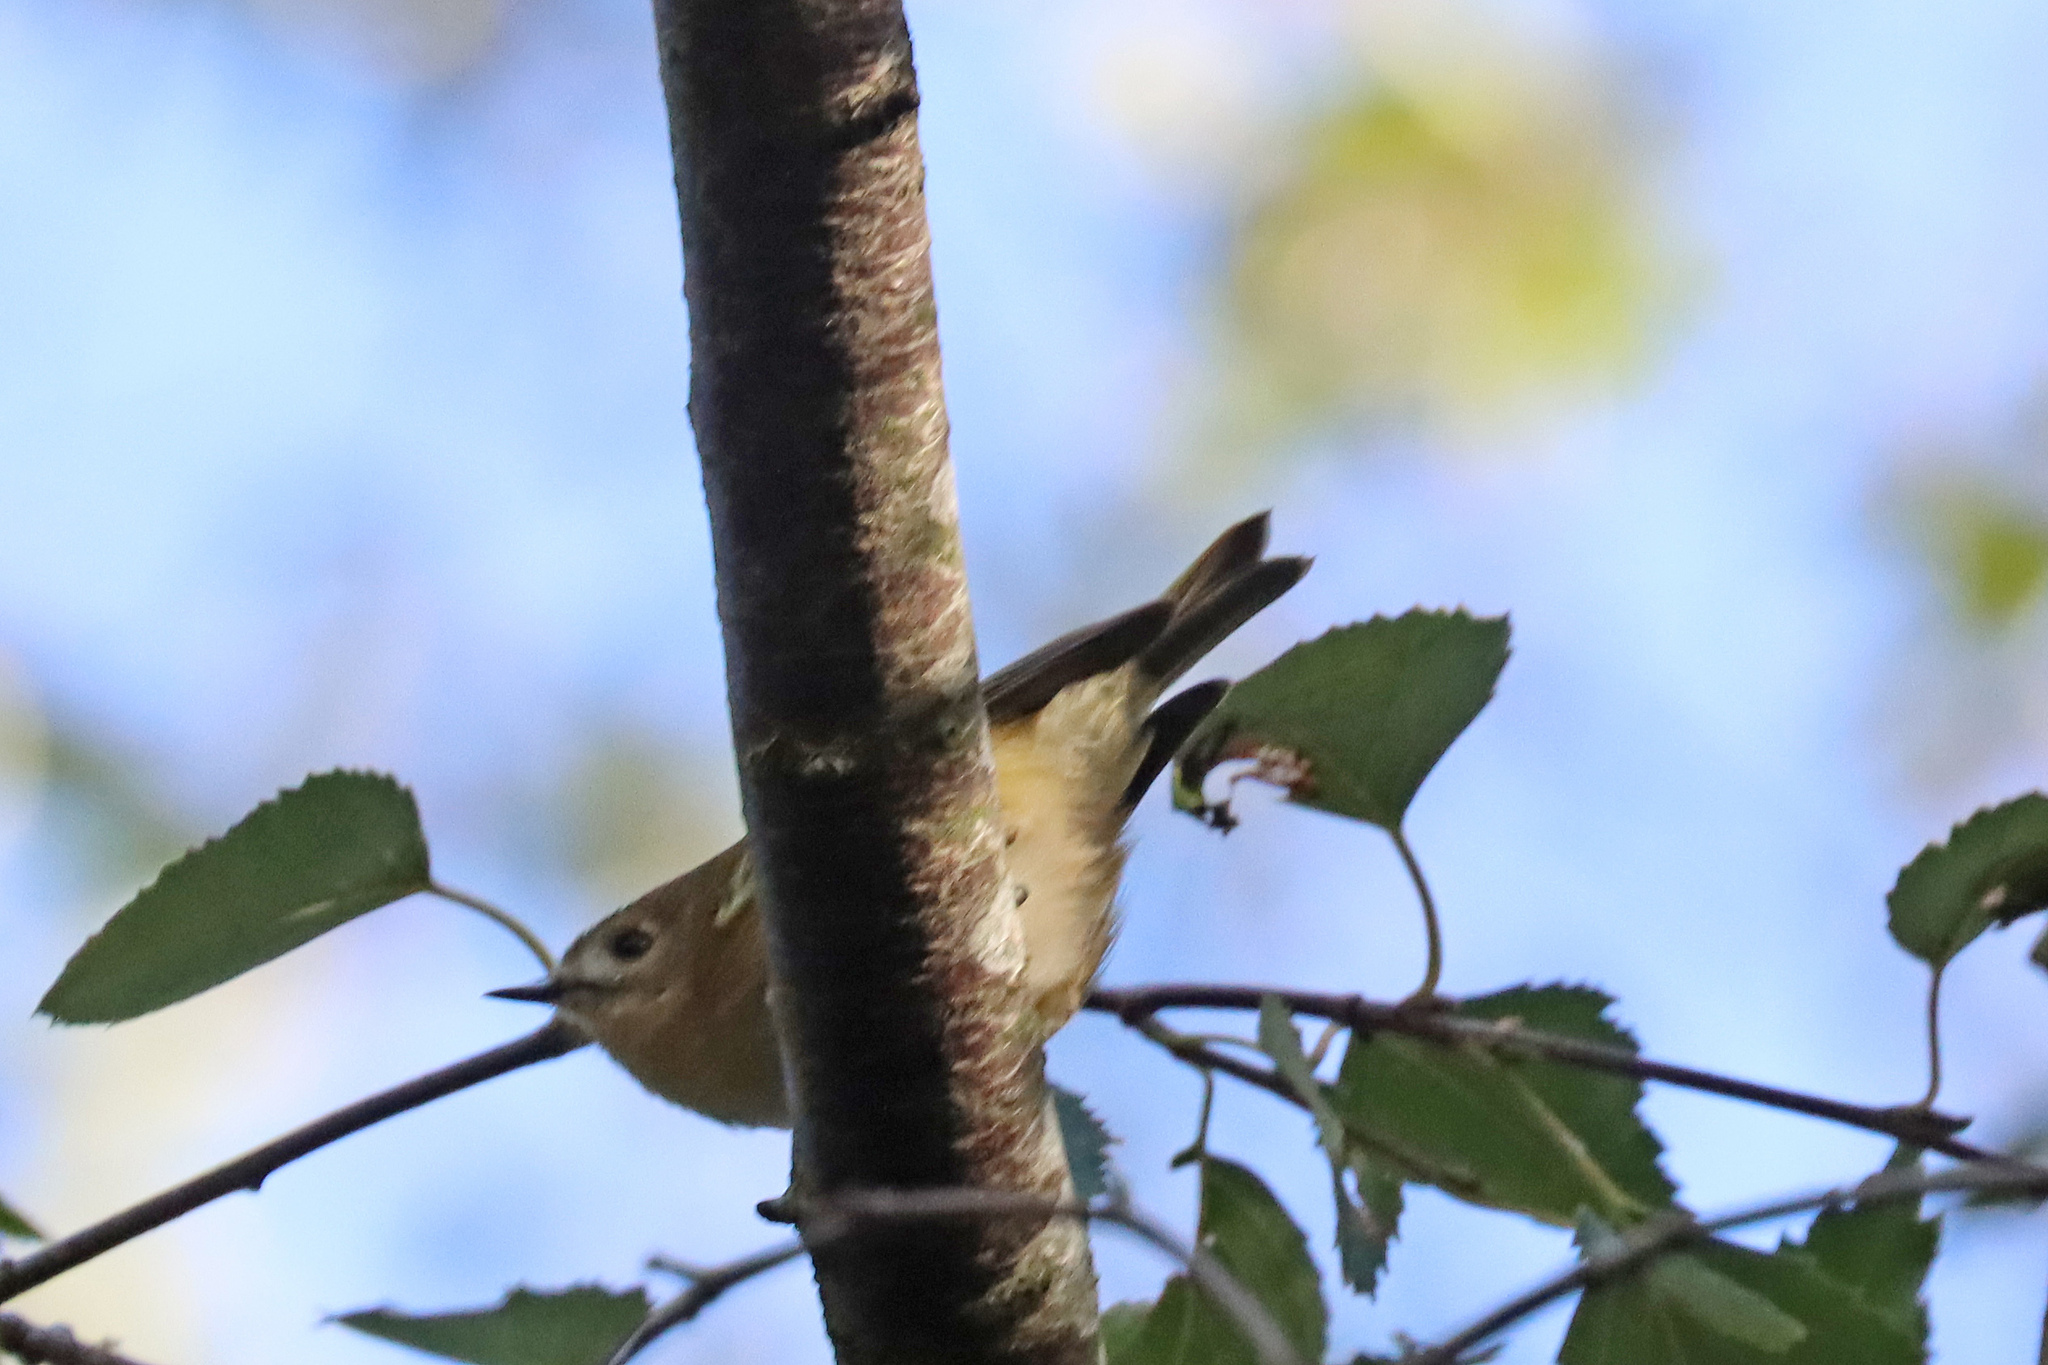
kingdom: Animalia
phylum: Chordata
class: Aves
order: Passeriformes
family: Regulidae
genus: Regulus
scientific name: Regulus regulus
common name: Goldcrest
